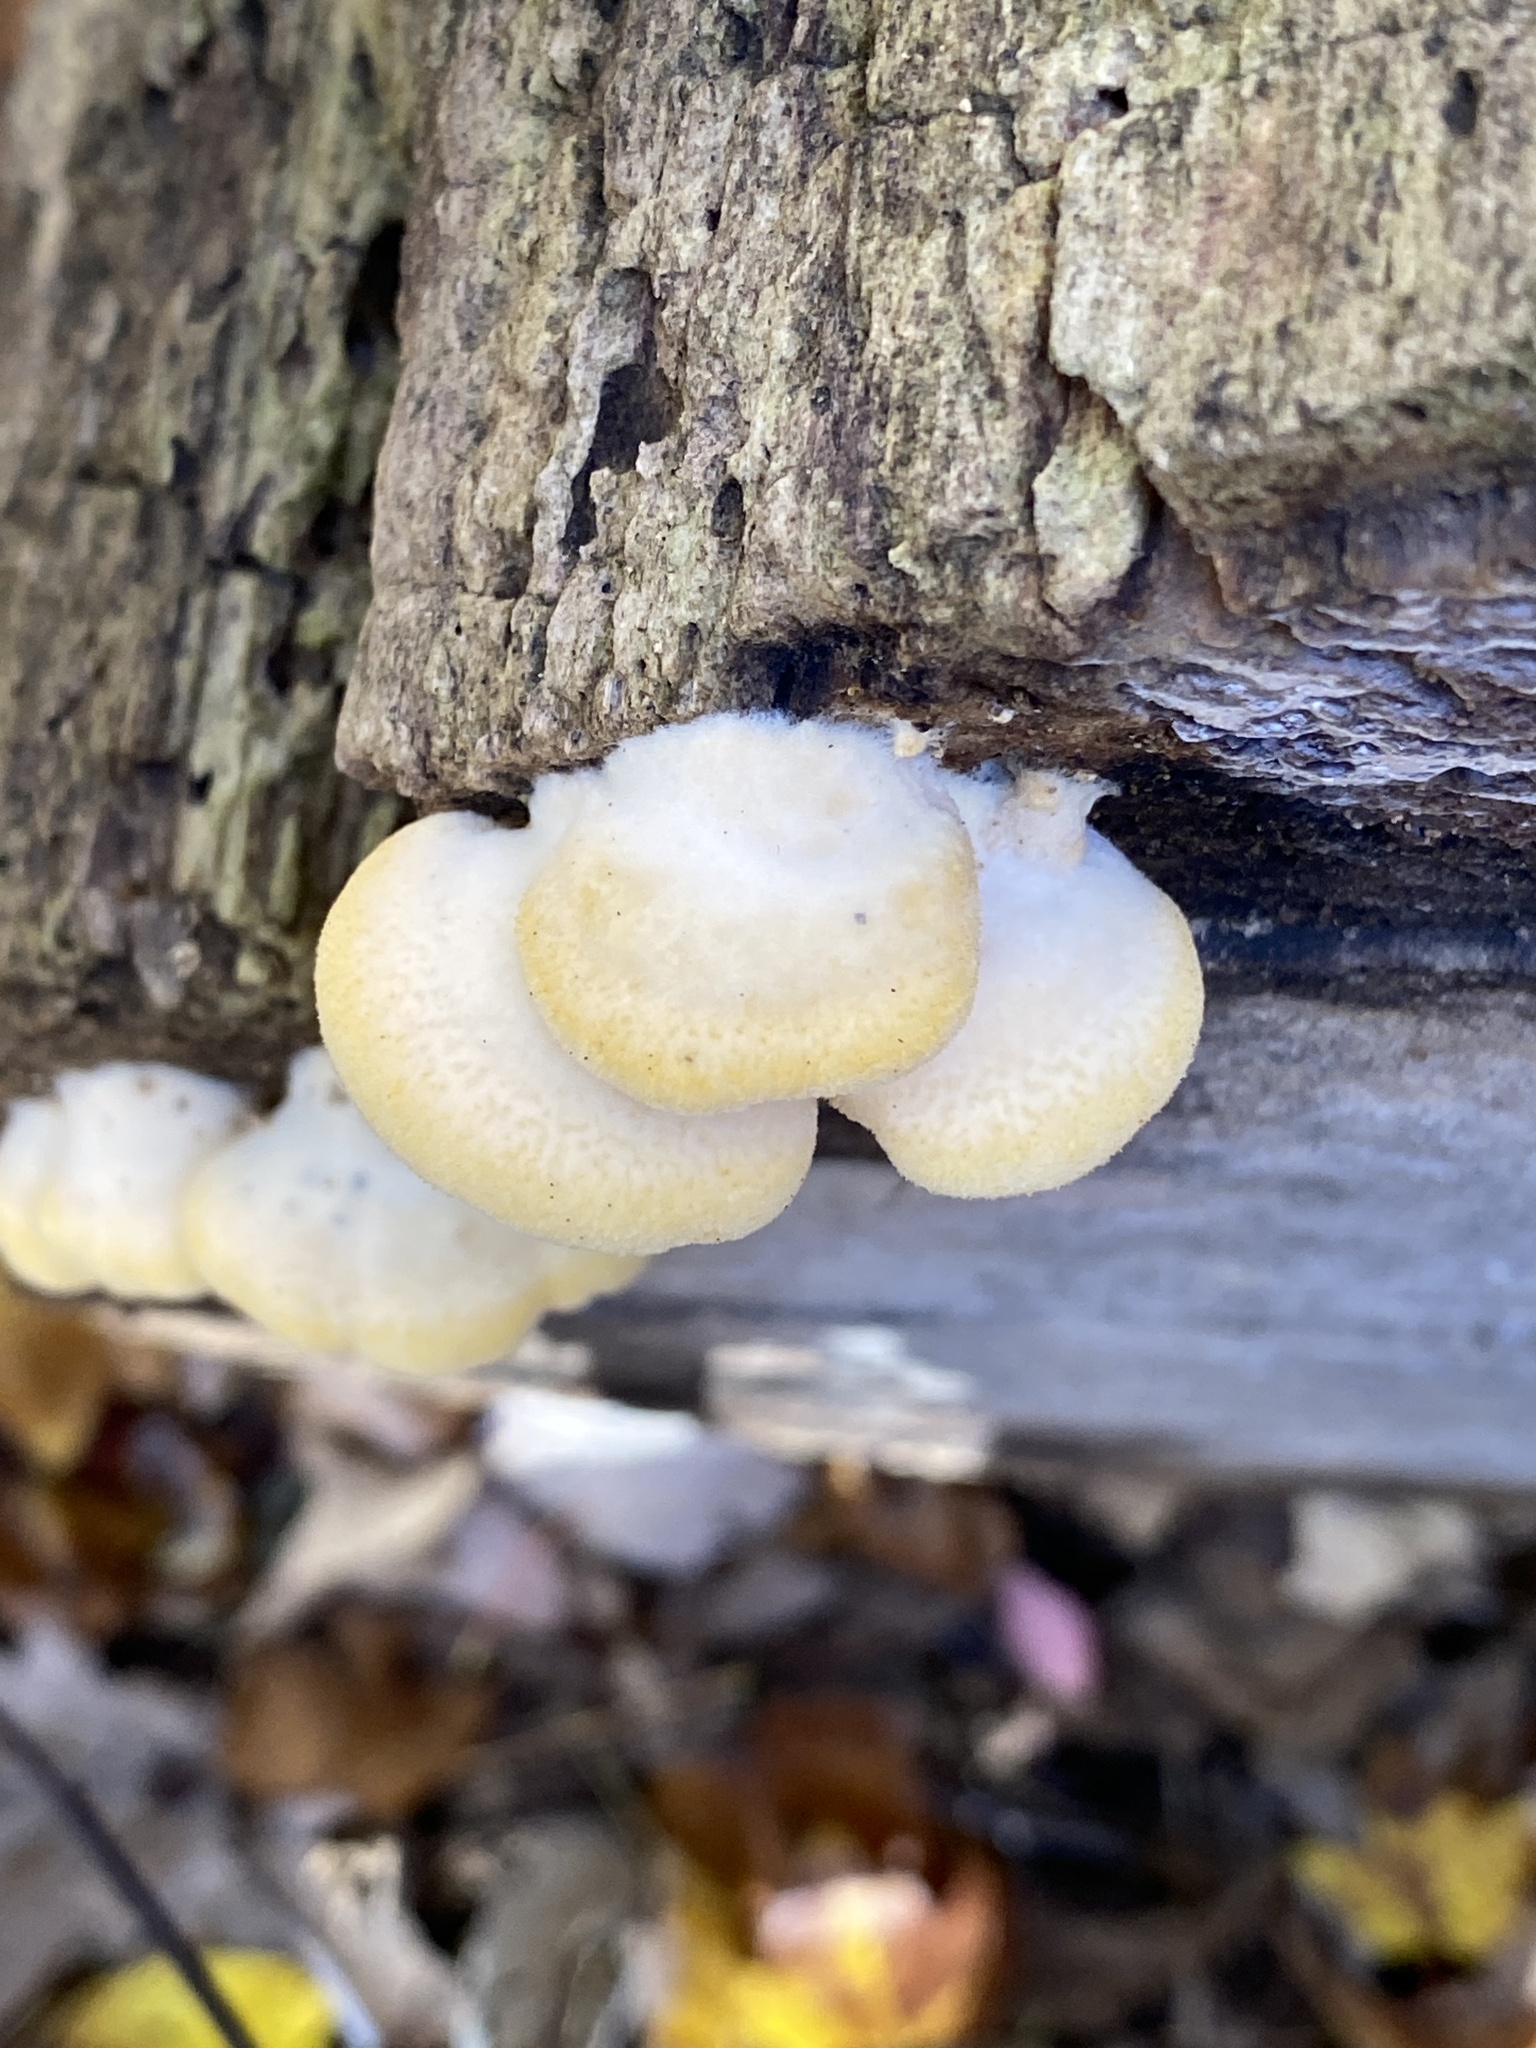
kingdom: Fungi
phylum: Basidiomycota
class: Agaricomycetes
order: Agaricales
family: Phyllotopsidaceae
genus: Phyllotopsis
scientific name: Phyllotopsis nidulans
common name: Orange mock oyster
